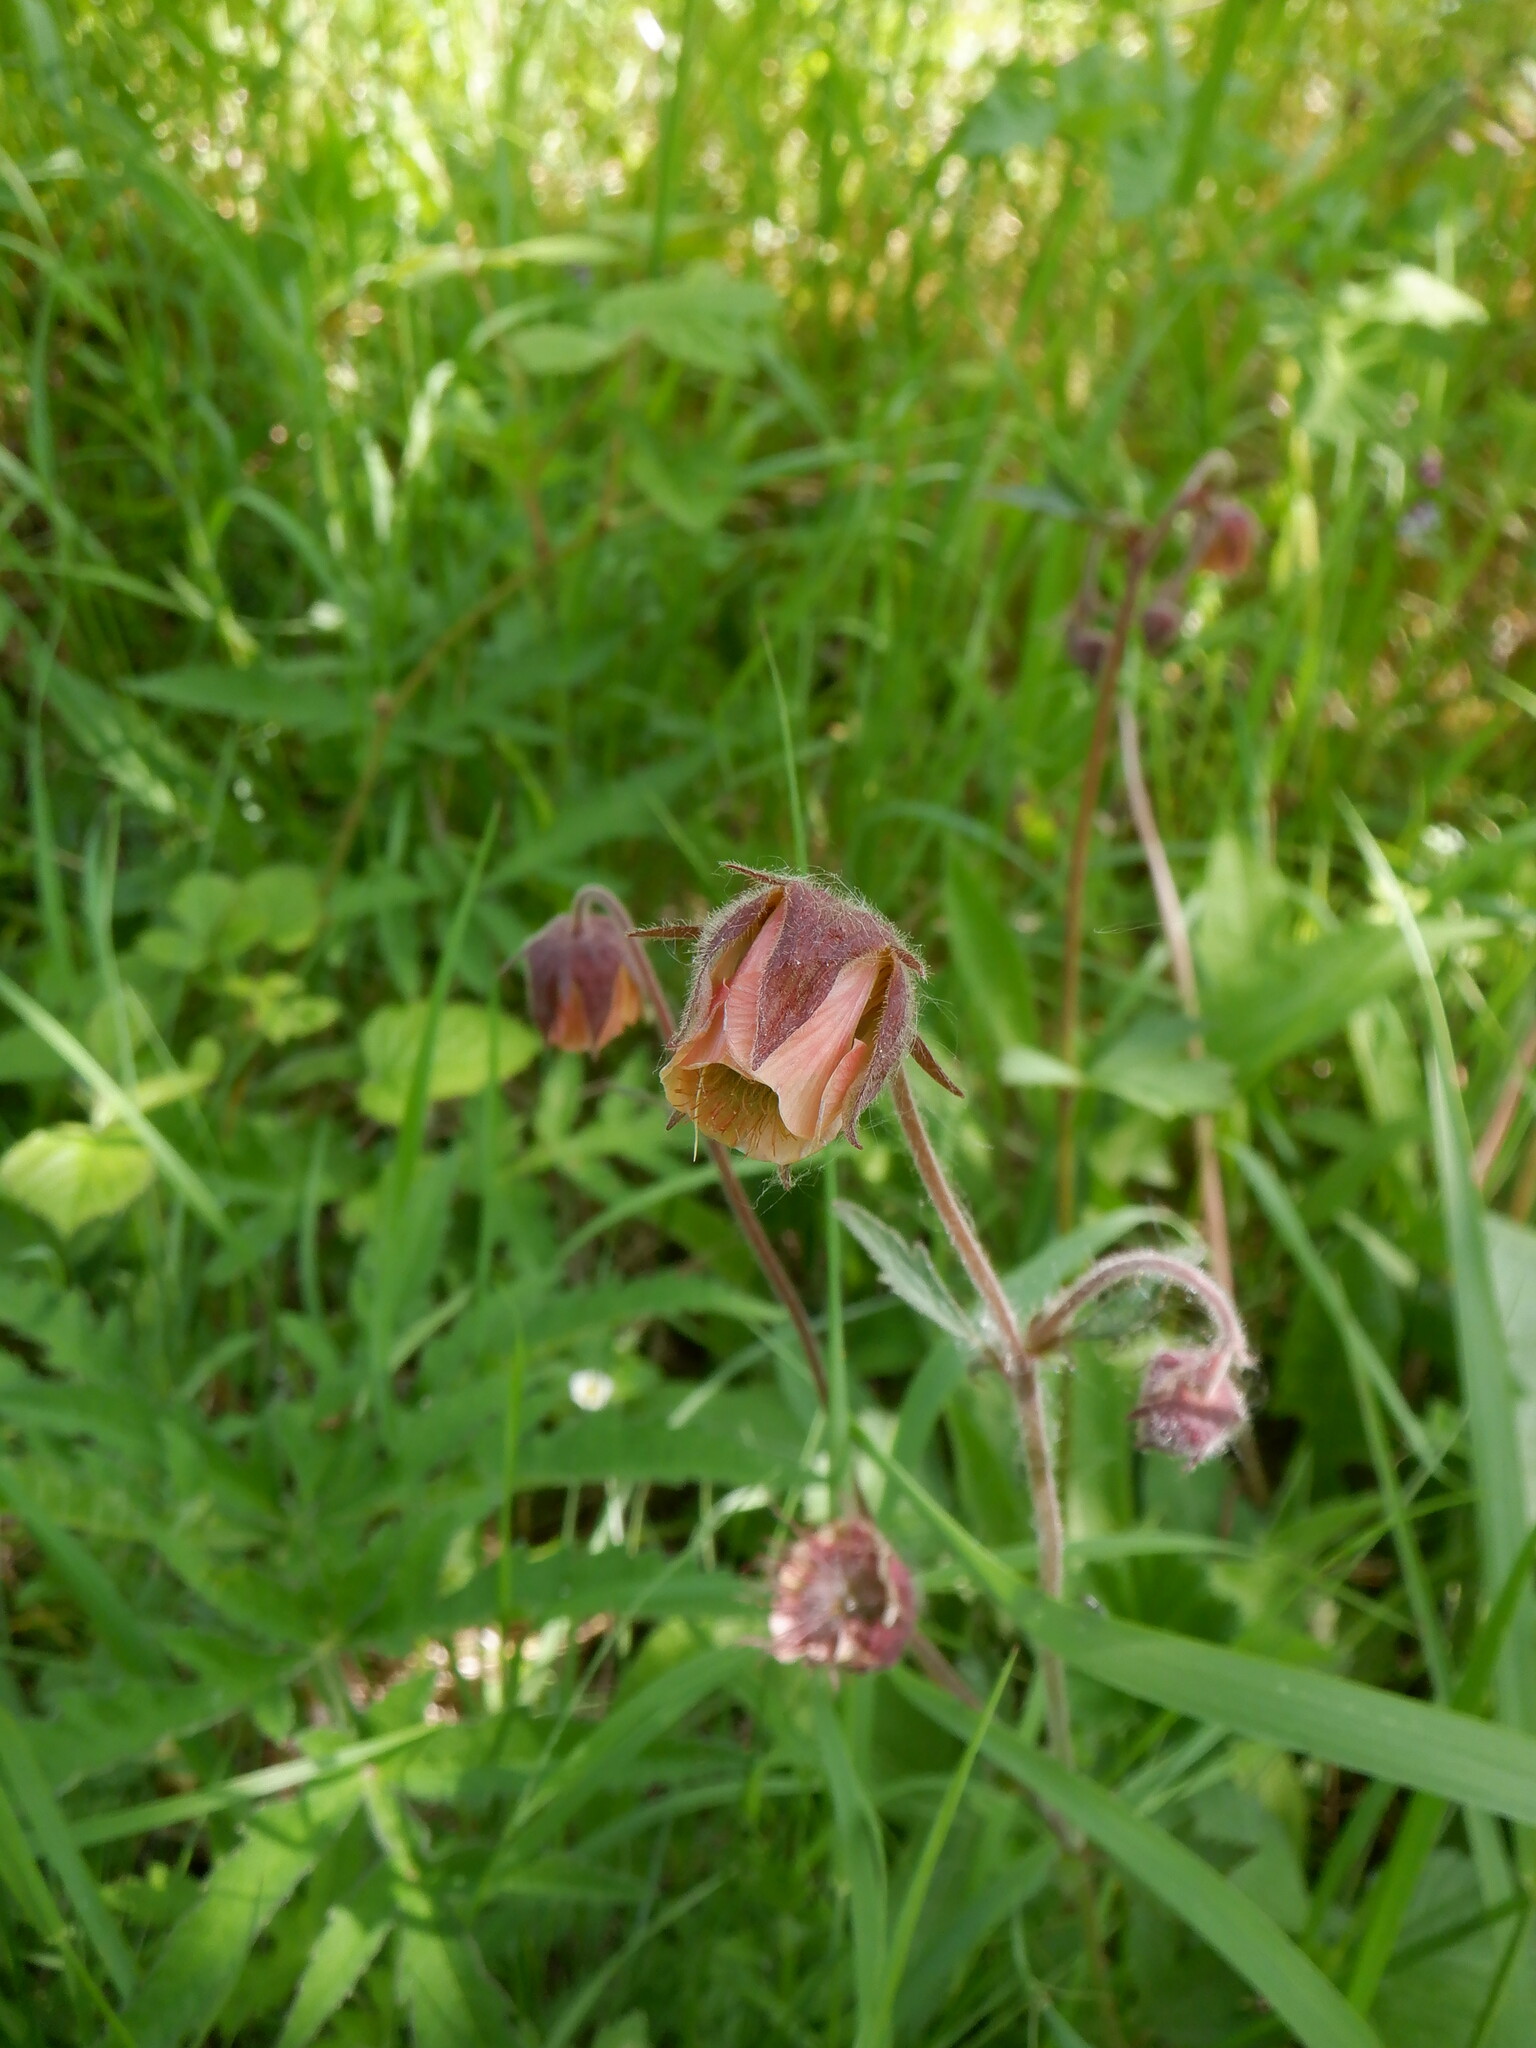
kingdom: Plantae
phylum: Tracheophyta
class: Magnoliopsida
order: Rosales
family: Rosaceae
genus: Geum
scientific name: Geum rivale
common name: Water avens
